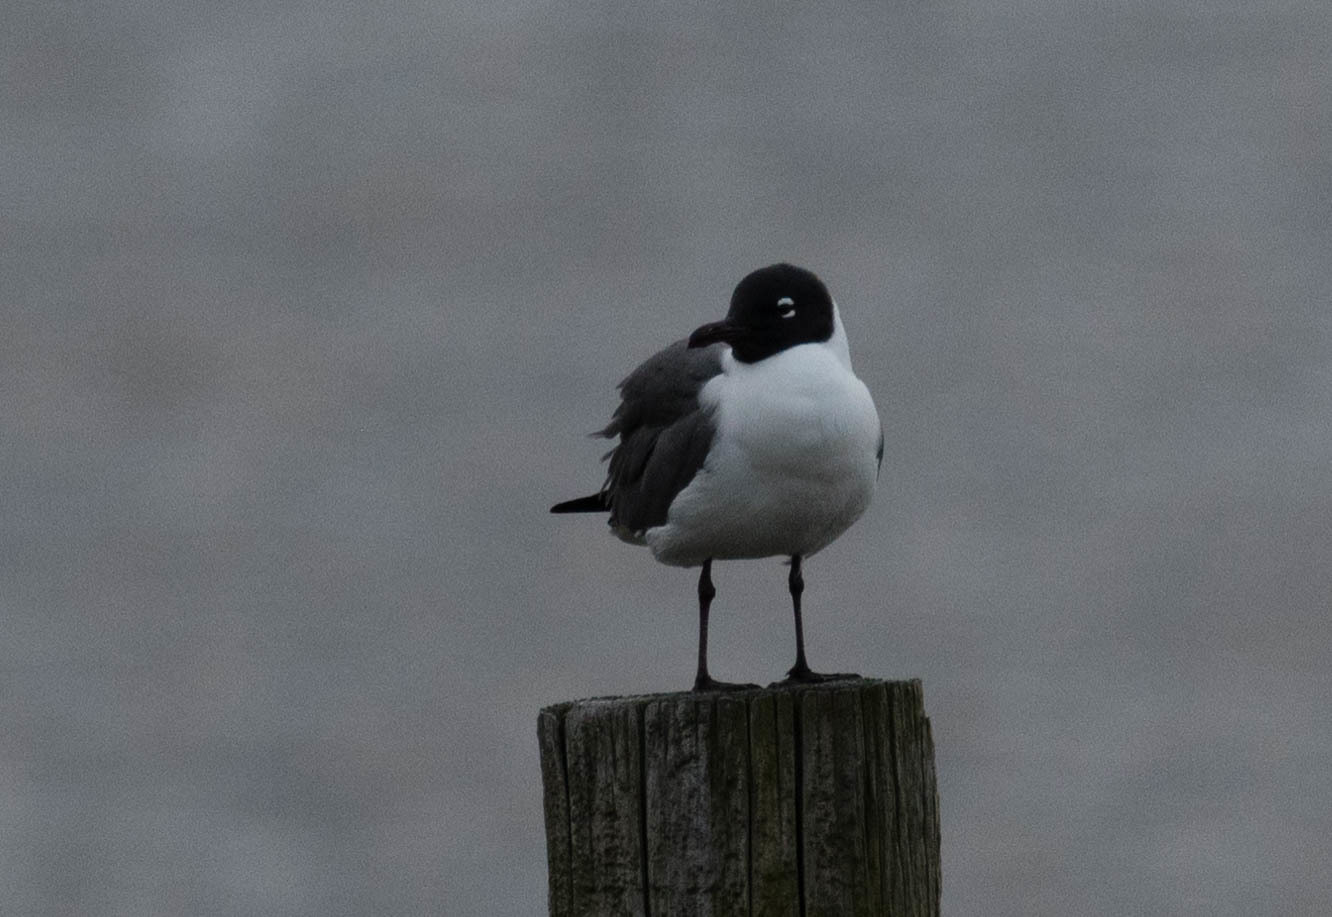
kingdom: Animalia
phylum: Chordata
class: Aves
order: Charadriiformes
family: Laridae
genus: Leucophaeus
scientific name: Leucophaeus atricilla
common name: Laughing gull
